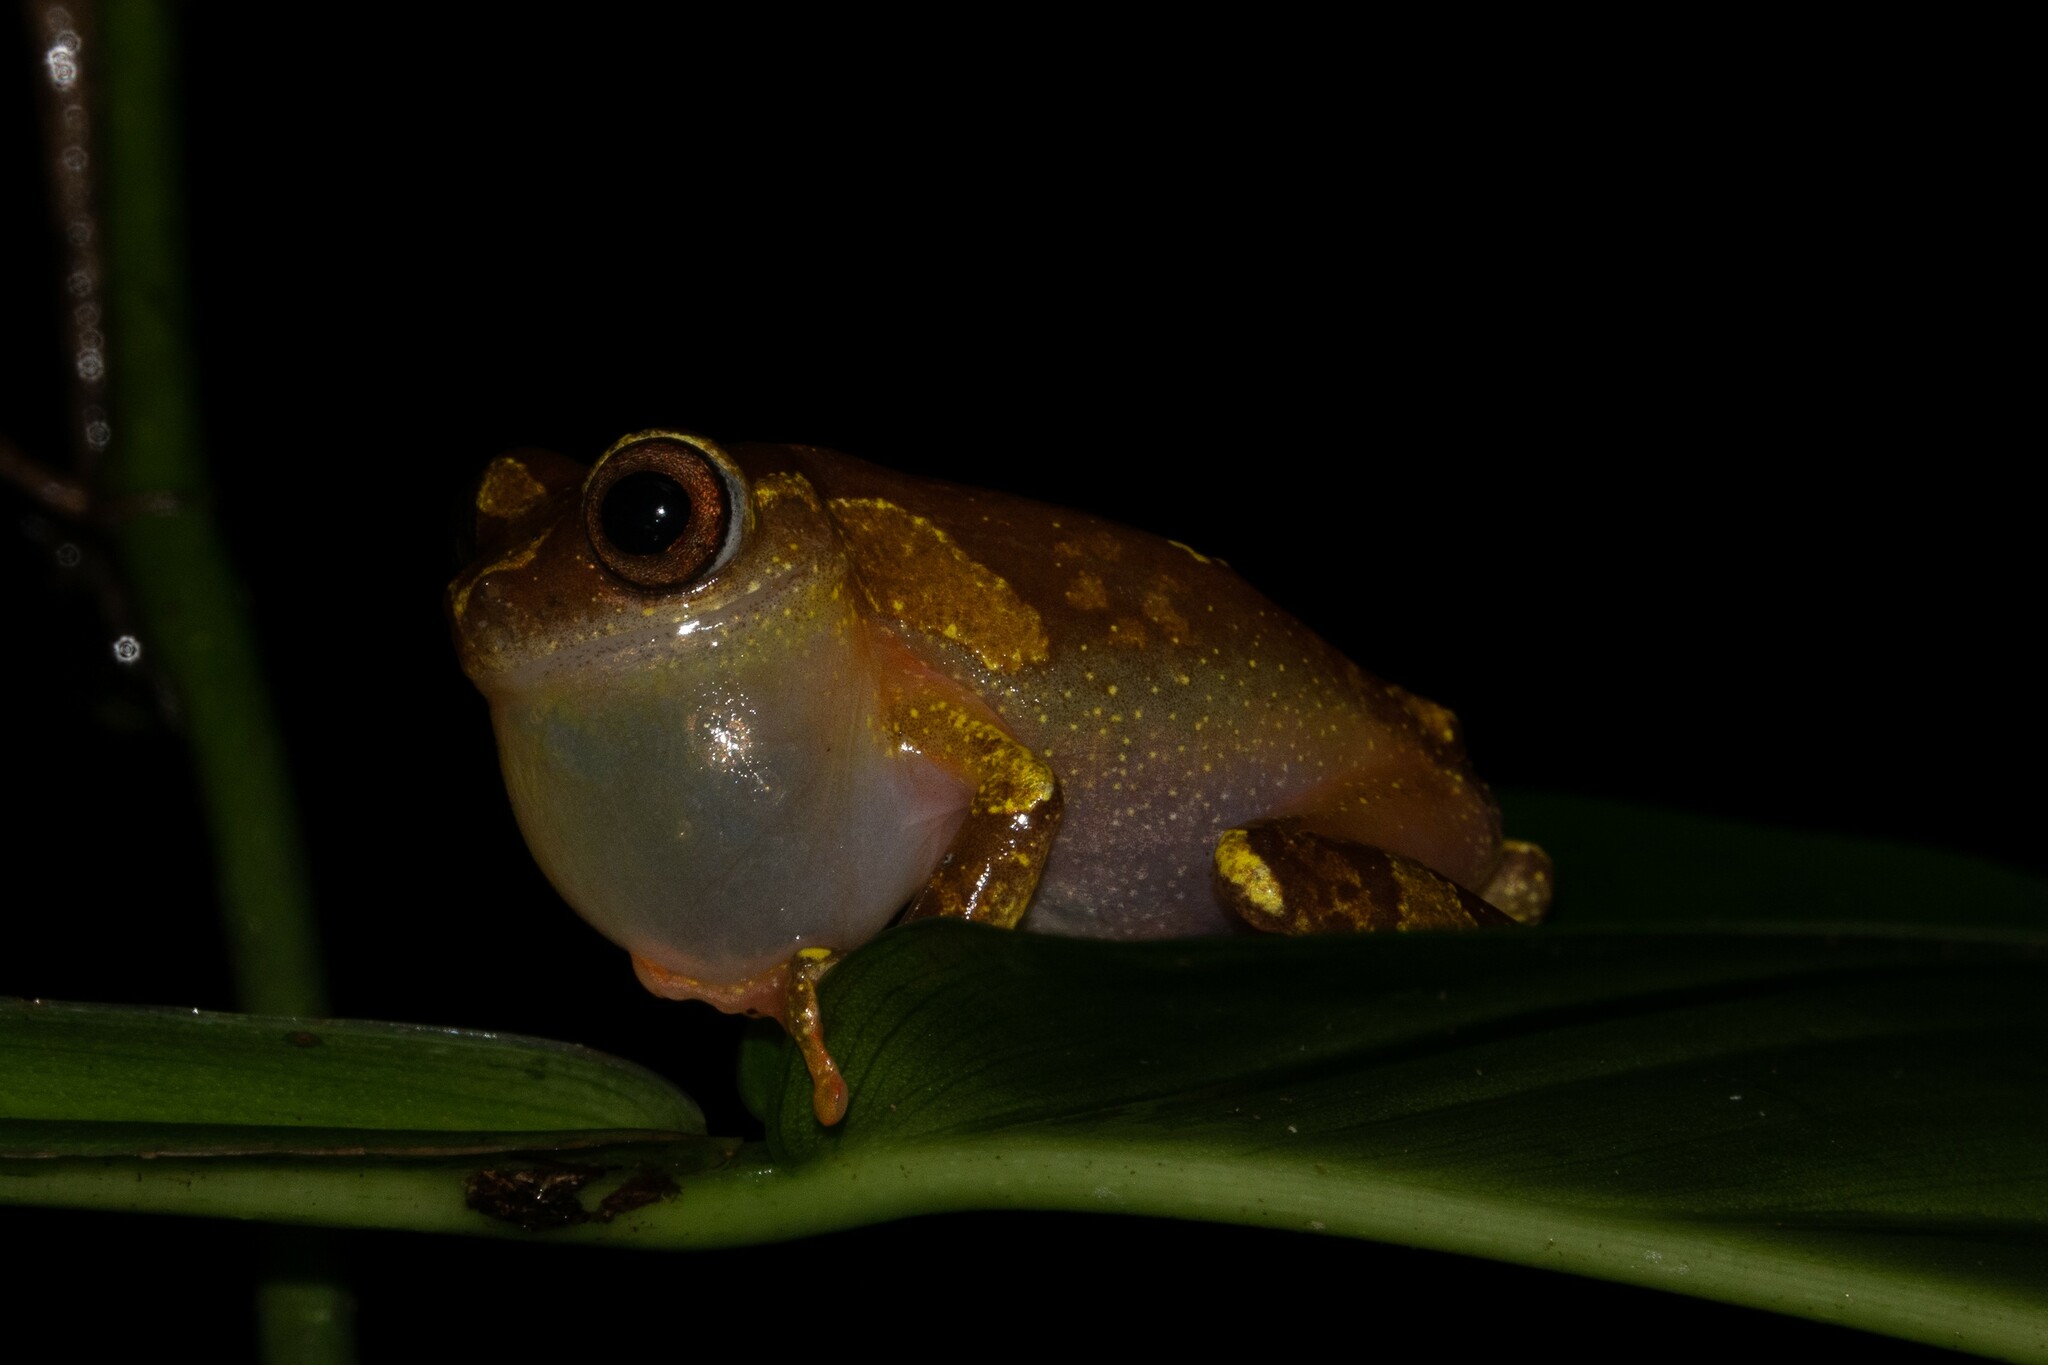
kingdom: Animalia
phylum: Chordata
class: Amphibia
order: Anura
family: Hylidae
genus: Dendropsophus
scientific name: Dendropsophus sarayacuensis
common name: Shreve's sarayacu treefrog
